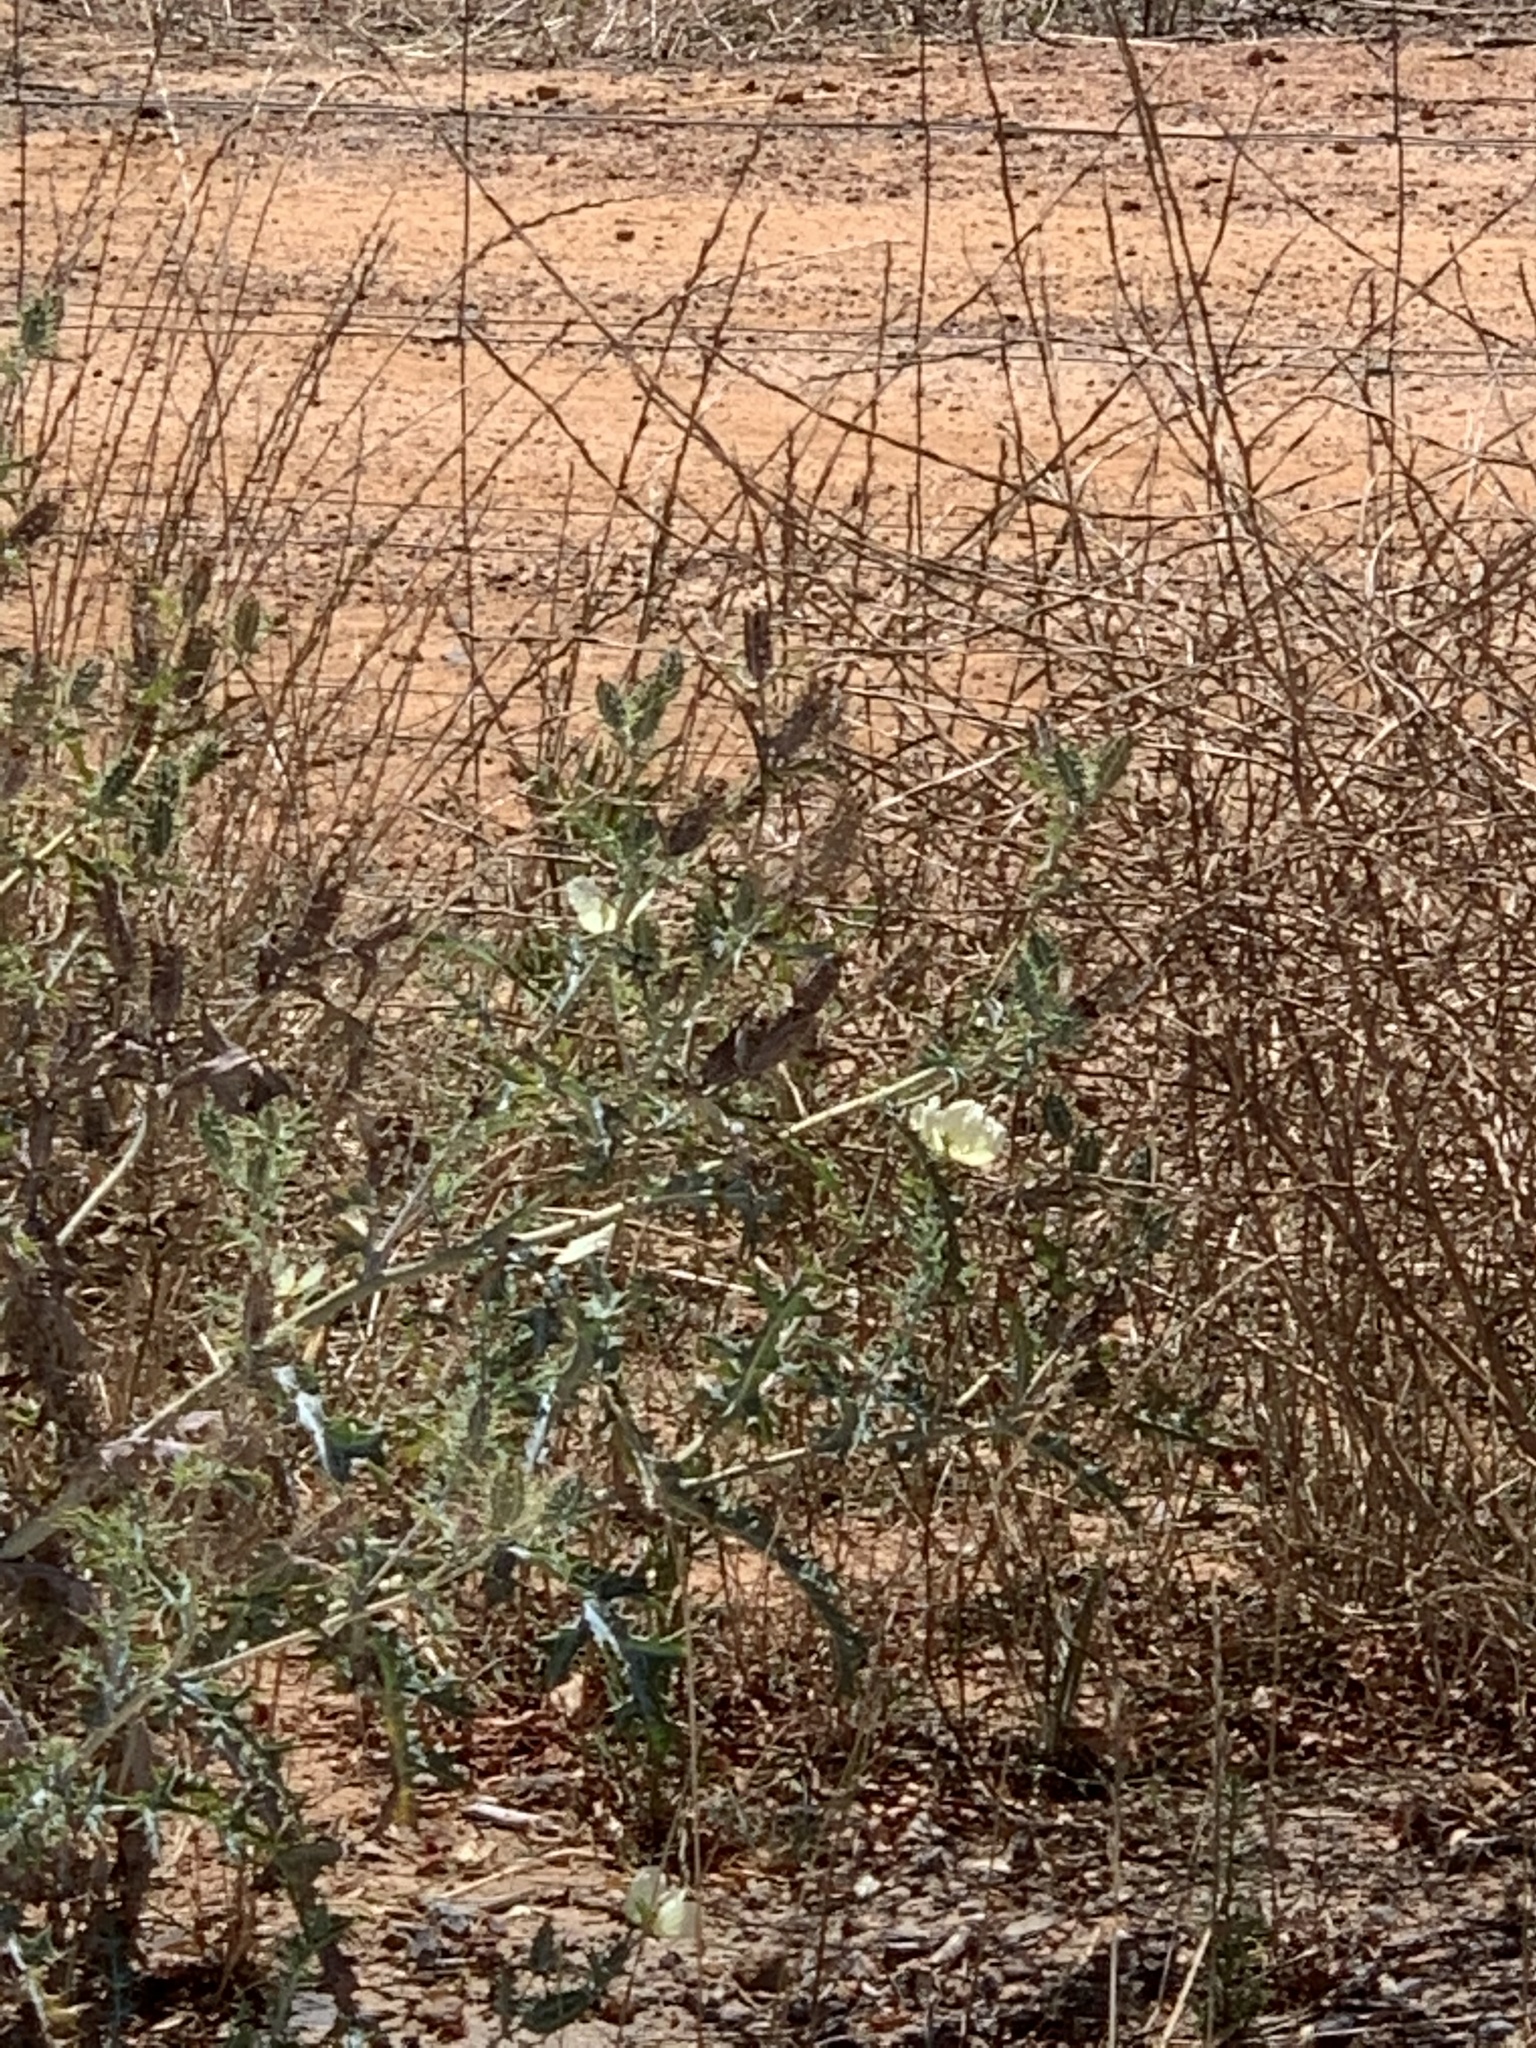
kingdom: Plantae
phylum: Tracheophyta
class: Magnoliopsida
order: Ranunculales
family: Papaveraceae
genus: Argemone
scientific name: Argemone ochroleuca
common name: White-flower mexican-poppy
